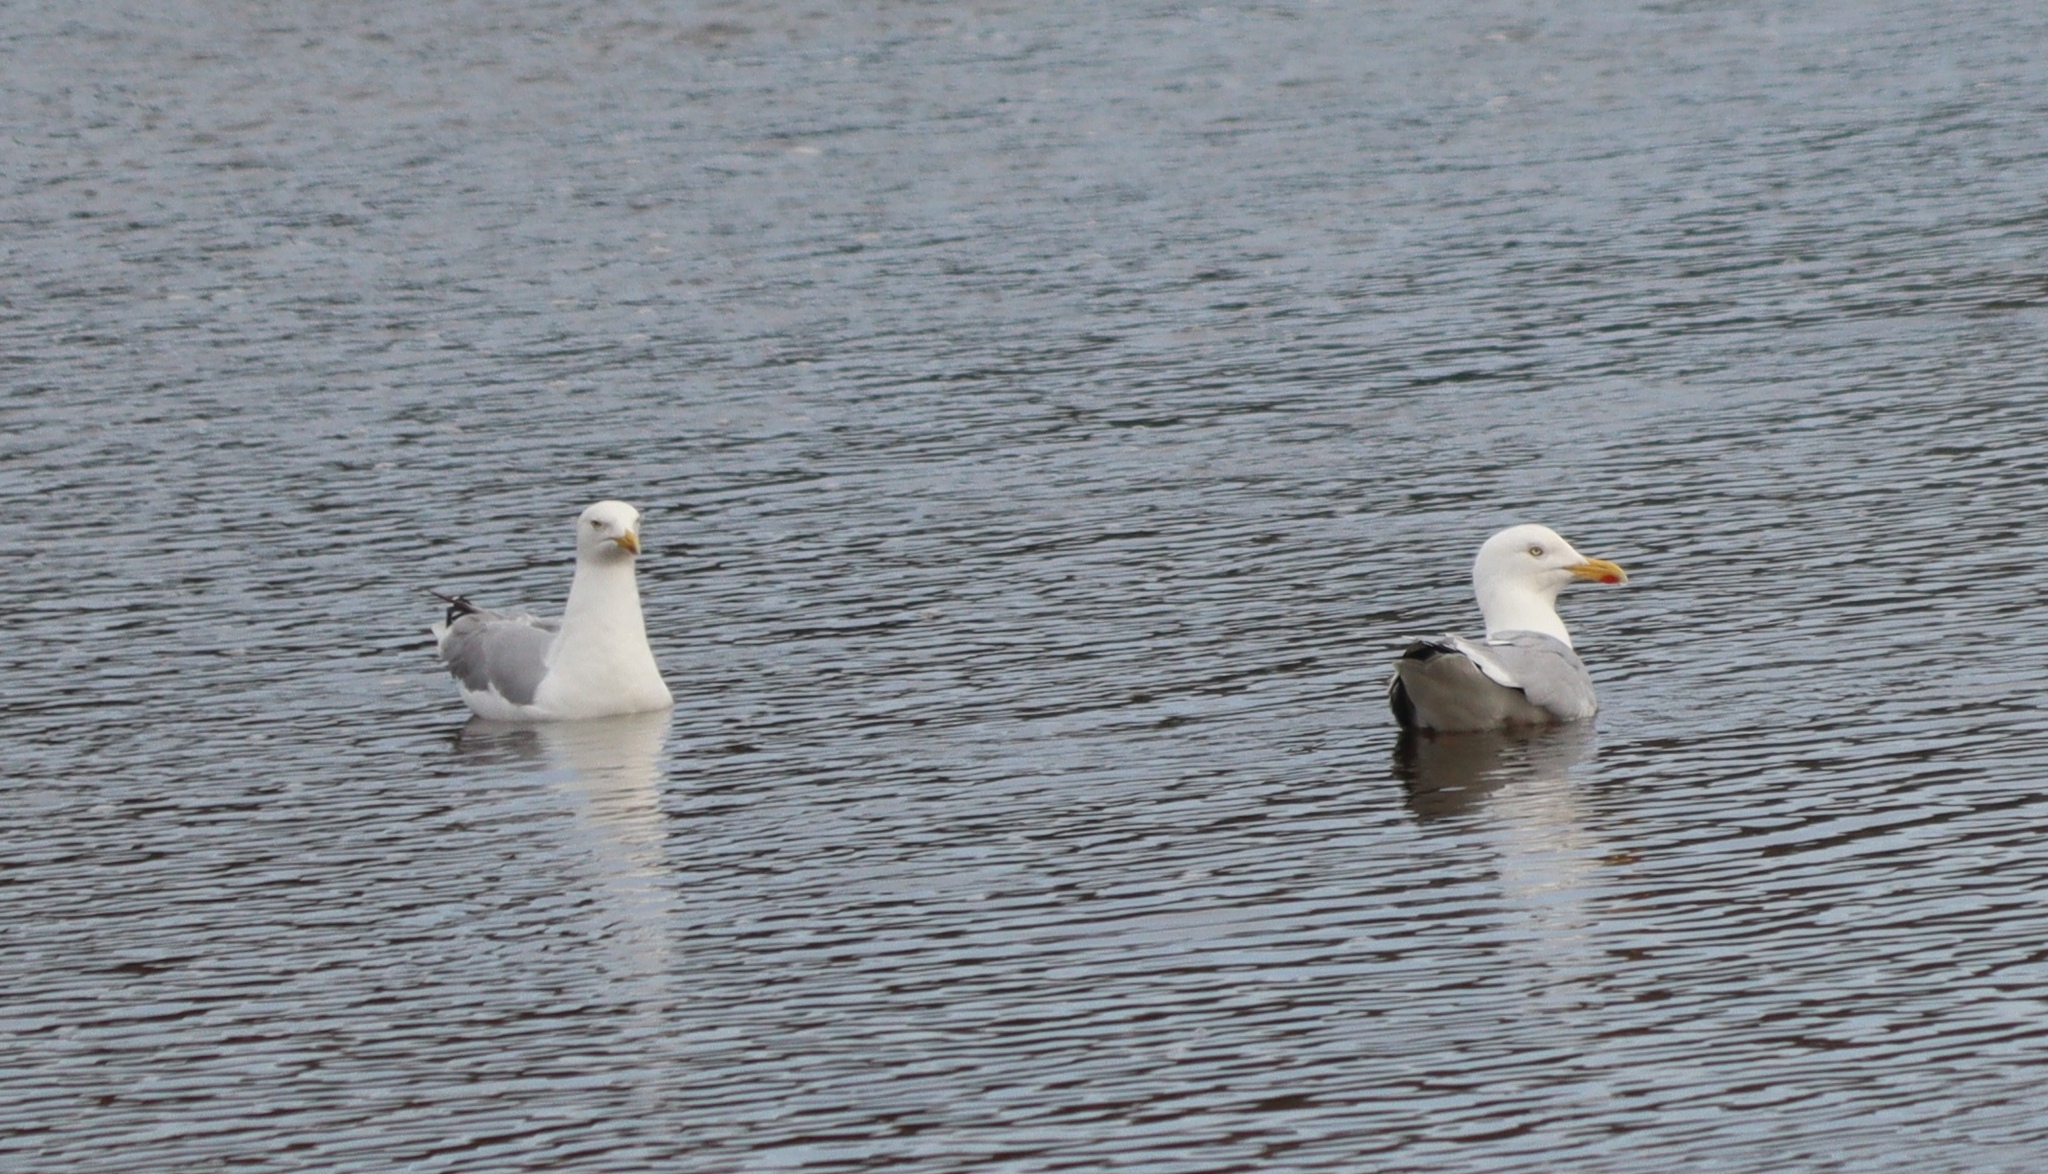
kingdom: Animalia
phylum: Chordata
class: Aves
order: Charadriiformes
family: Laridae
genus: Larus
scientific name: Larus argentatus
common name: Herring gull
